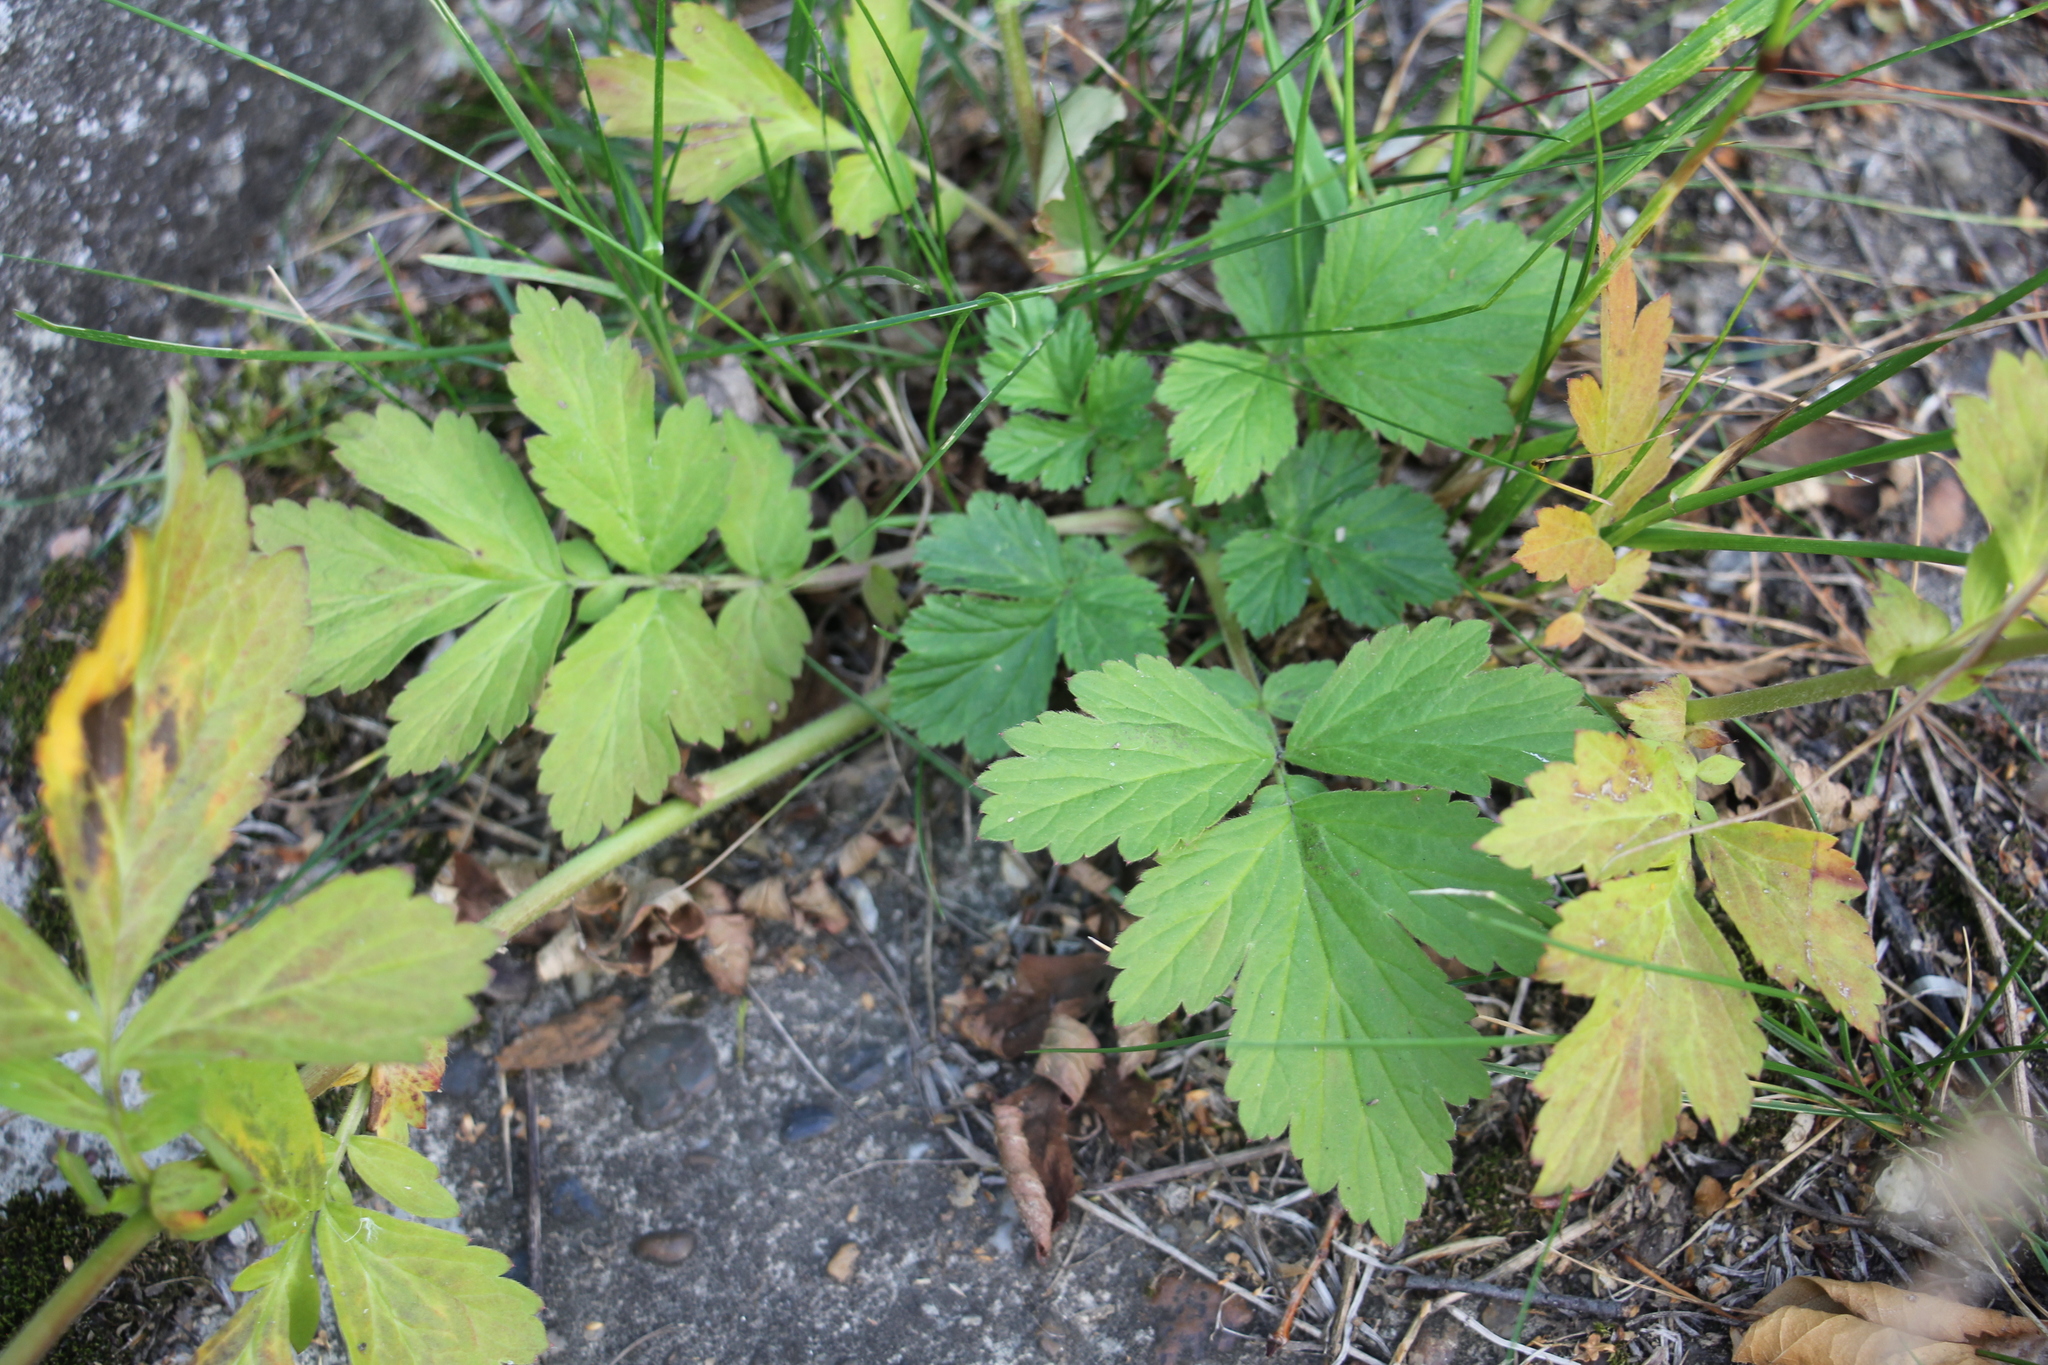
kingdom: Plantae
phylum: Tracheophyta
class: Magnoliopsida
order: Rosales
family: Rosaceae
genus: Geum
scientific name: Geum aleppicum
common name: Yellow avens
